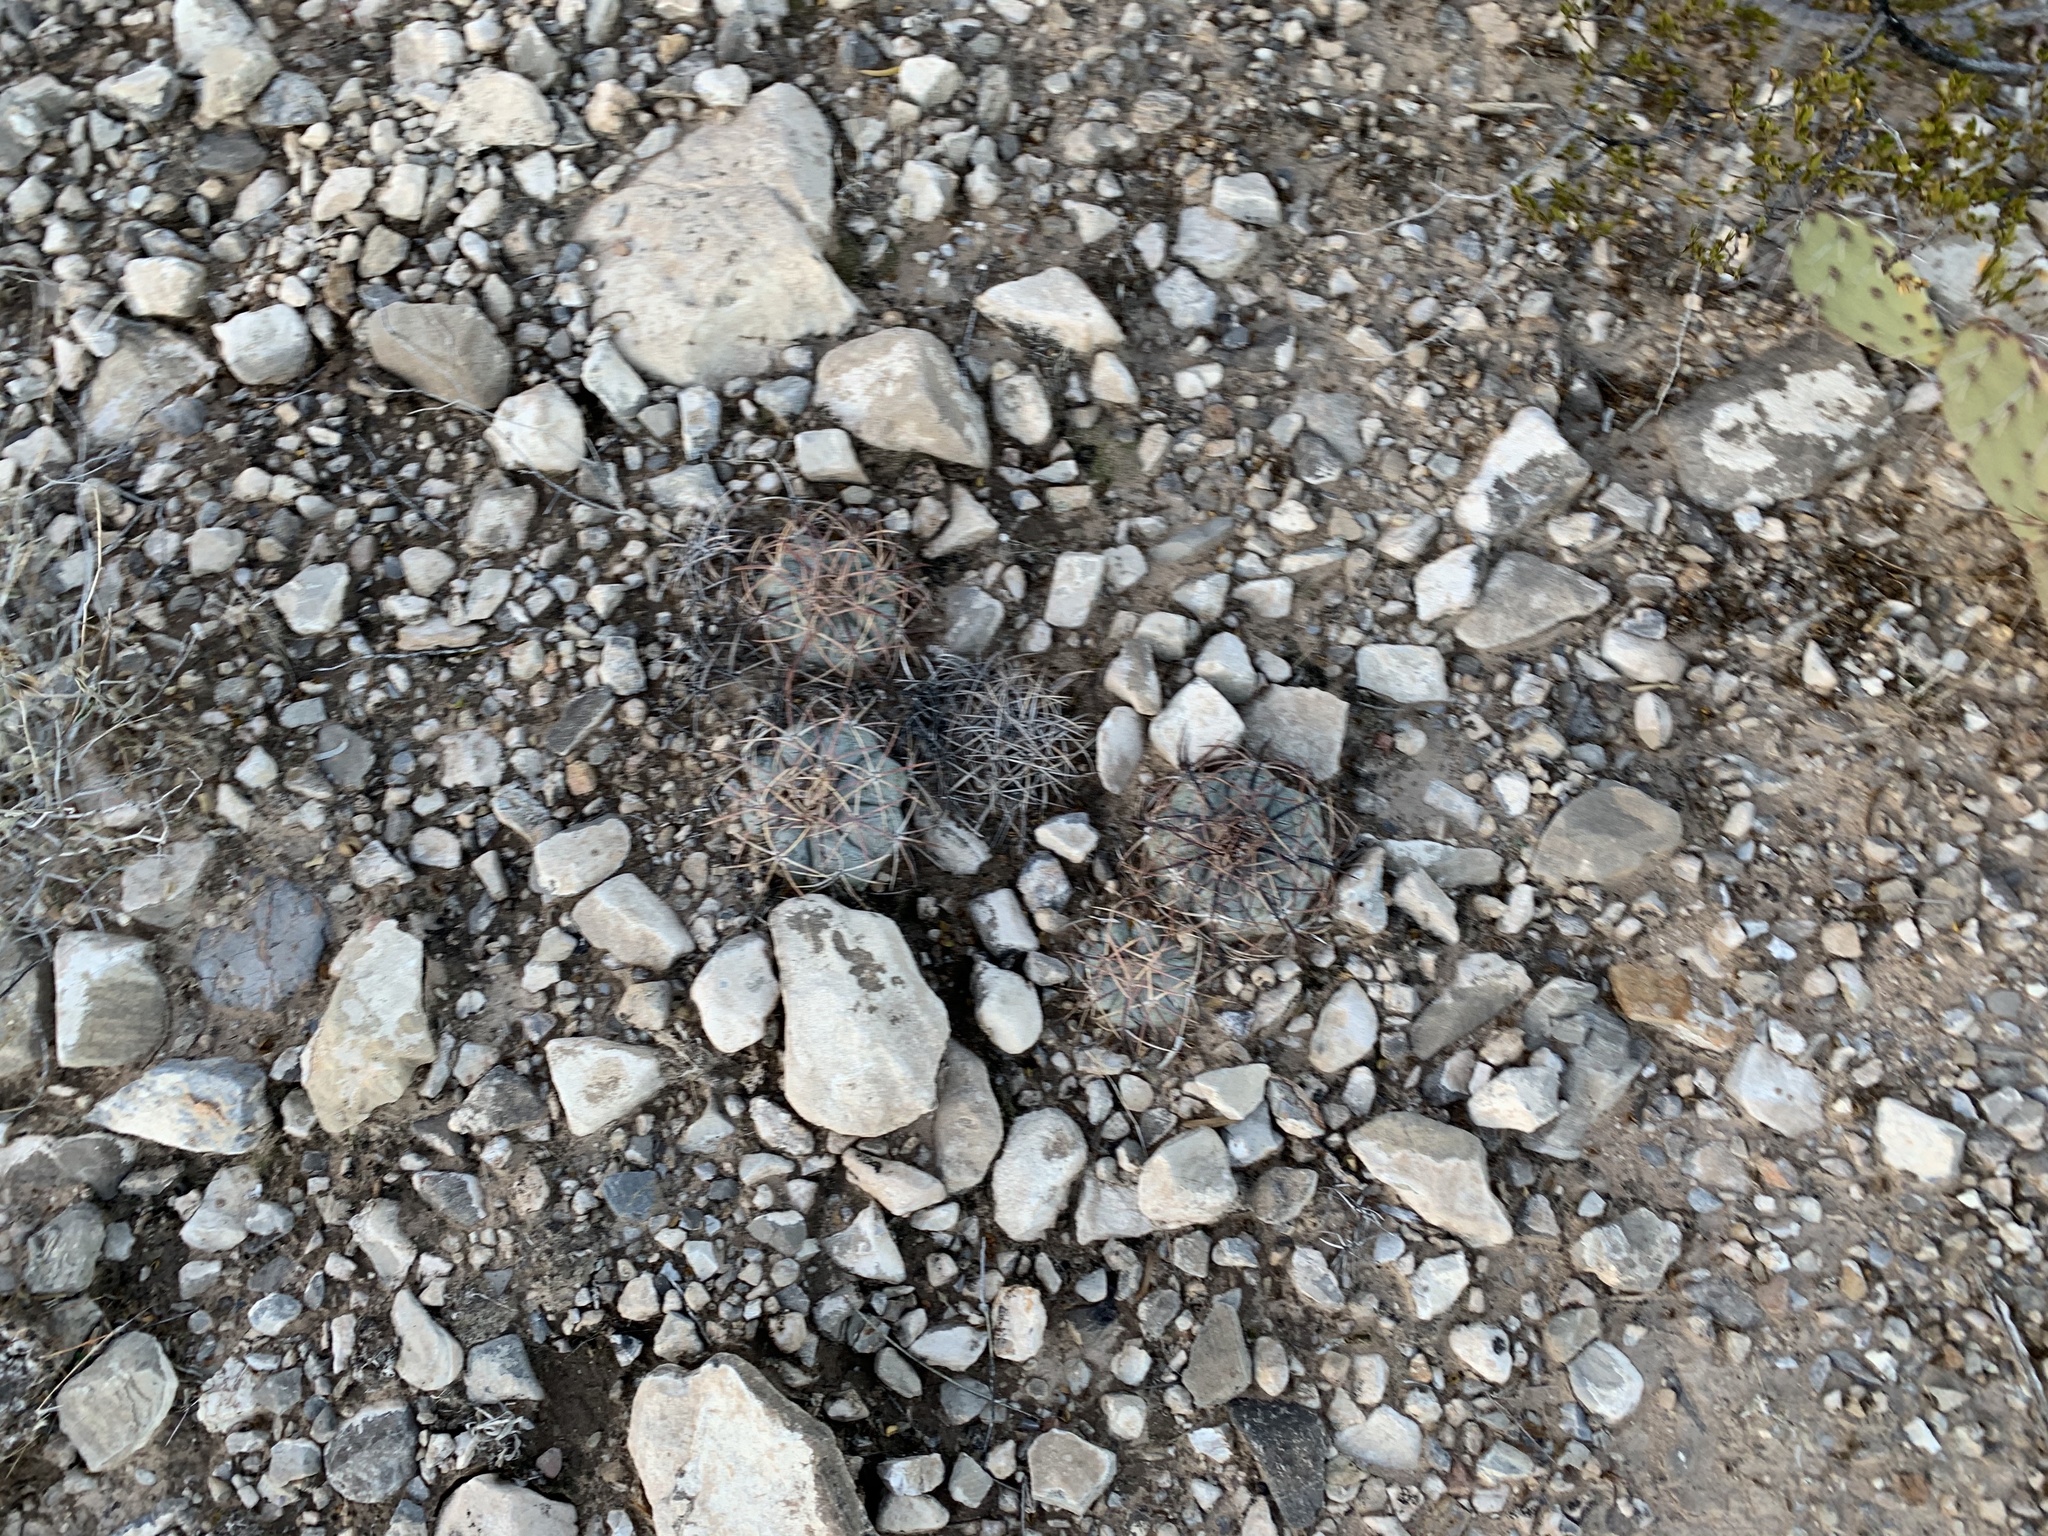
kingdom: Plantae
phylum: Tracheophyta
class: Magnoliopsida
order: Caryophyllales
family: Cactaceae
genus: Echinocactus
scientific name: Echinocactus horizonthalonius
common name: Devilshead
